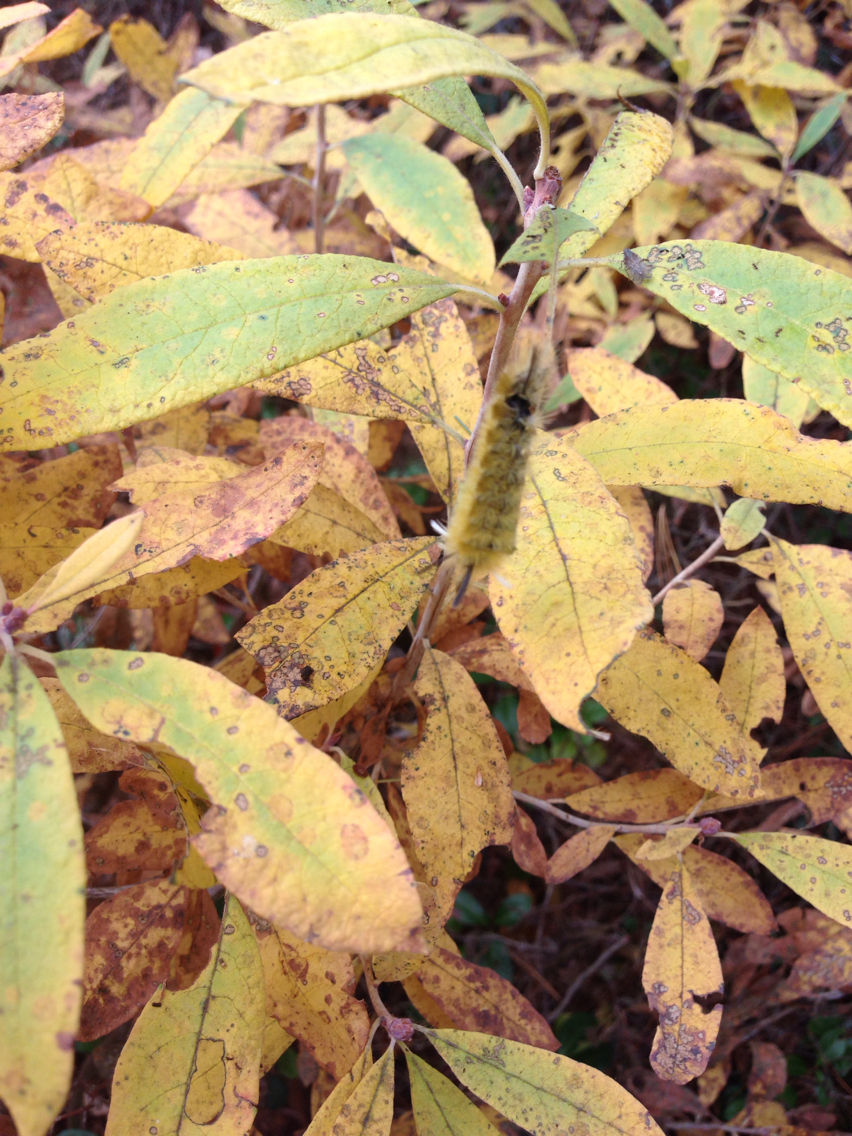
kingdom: Animalia
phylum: Arthropoda
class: Insecta
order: Lepidoptera
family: Erebidae
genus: Halysidota
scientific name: Halysidota tessellaris
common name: Banded tussock moth
